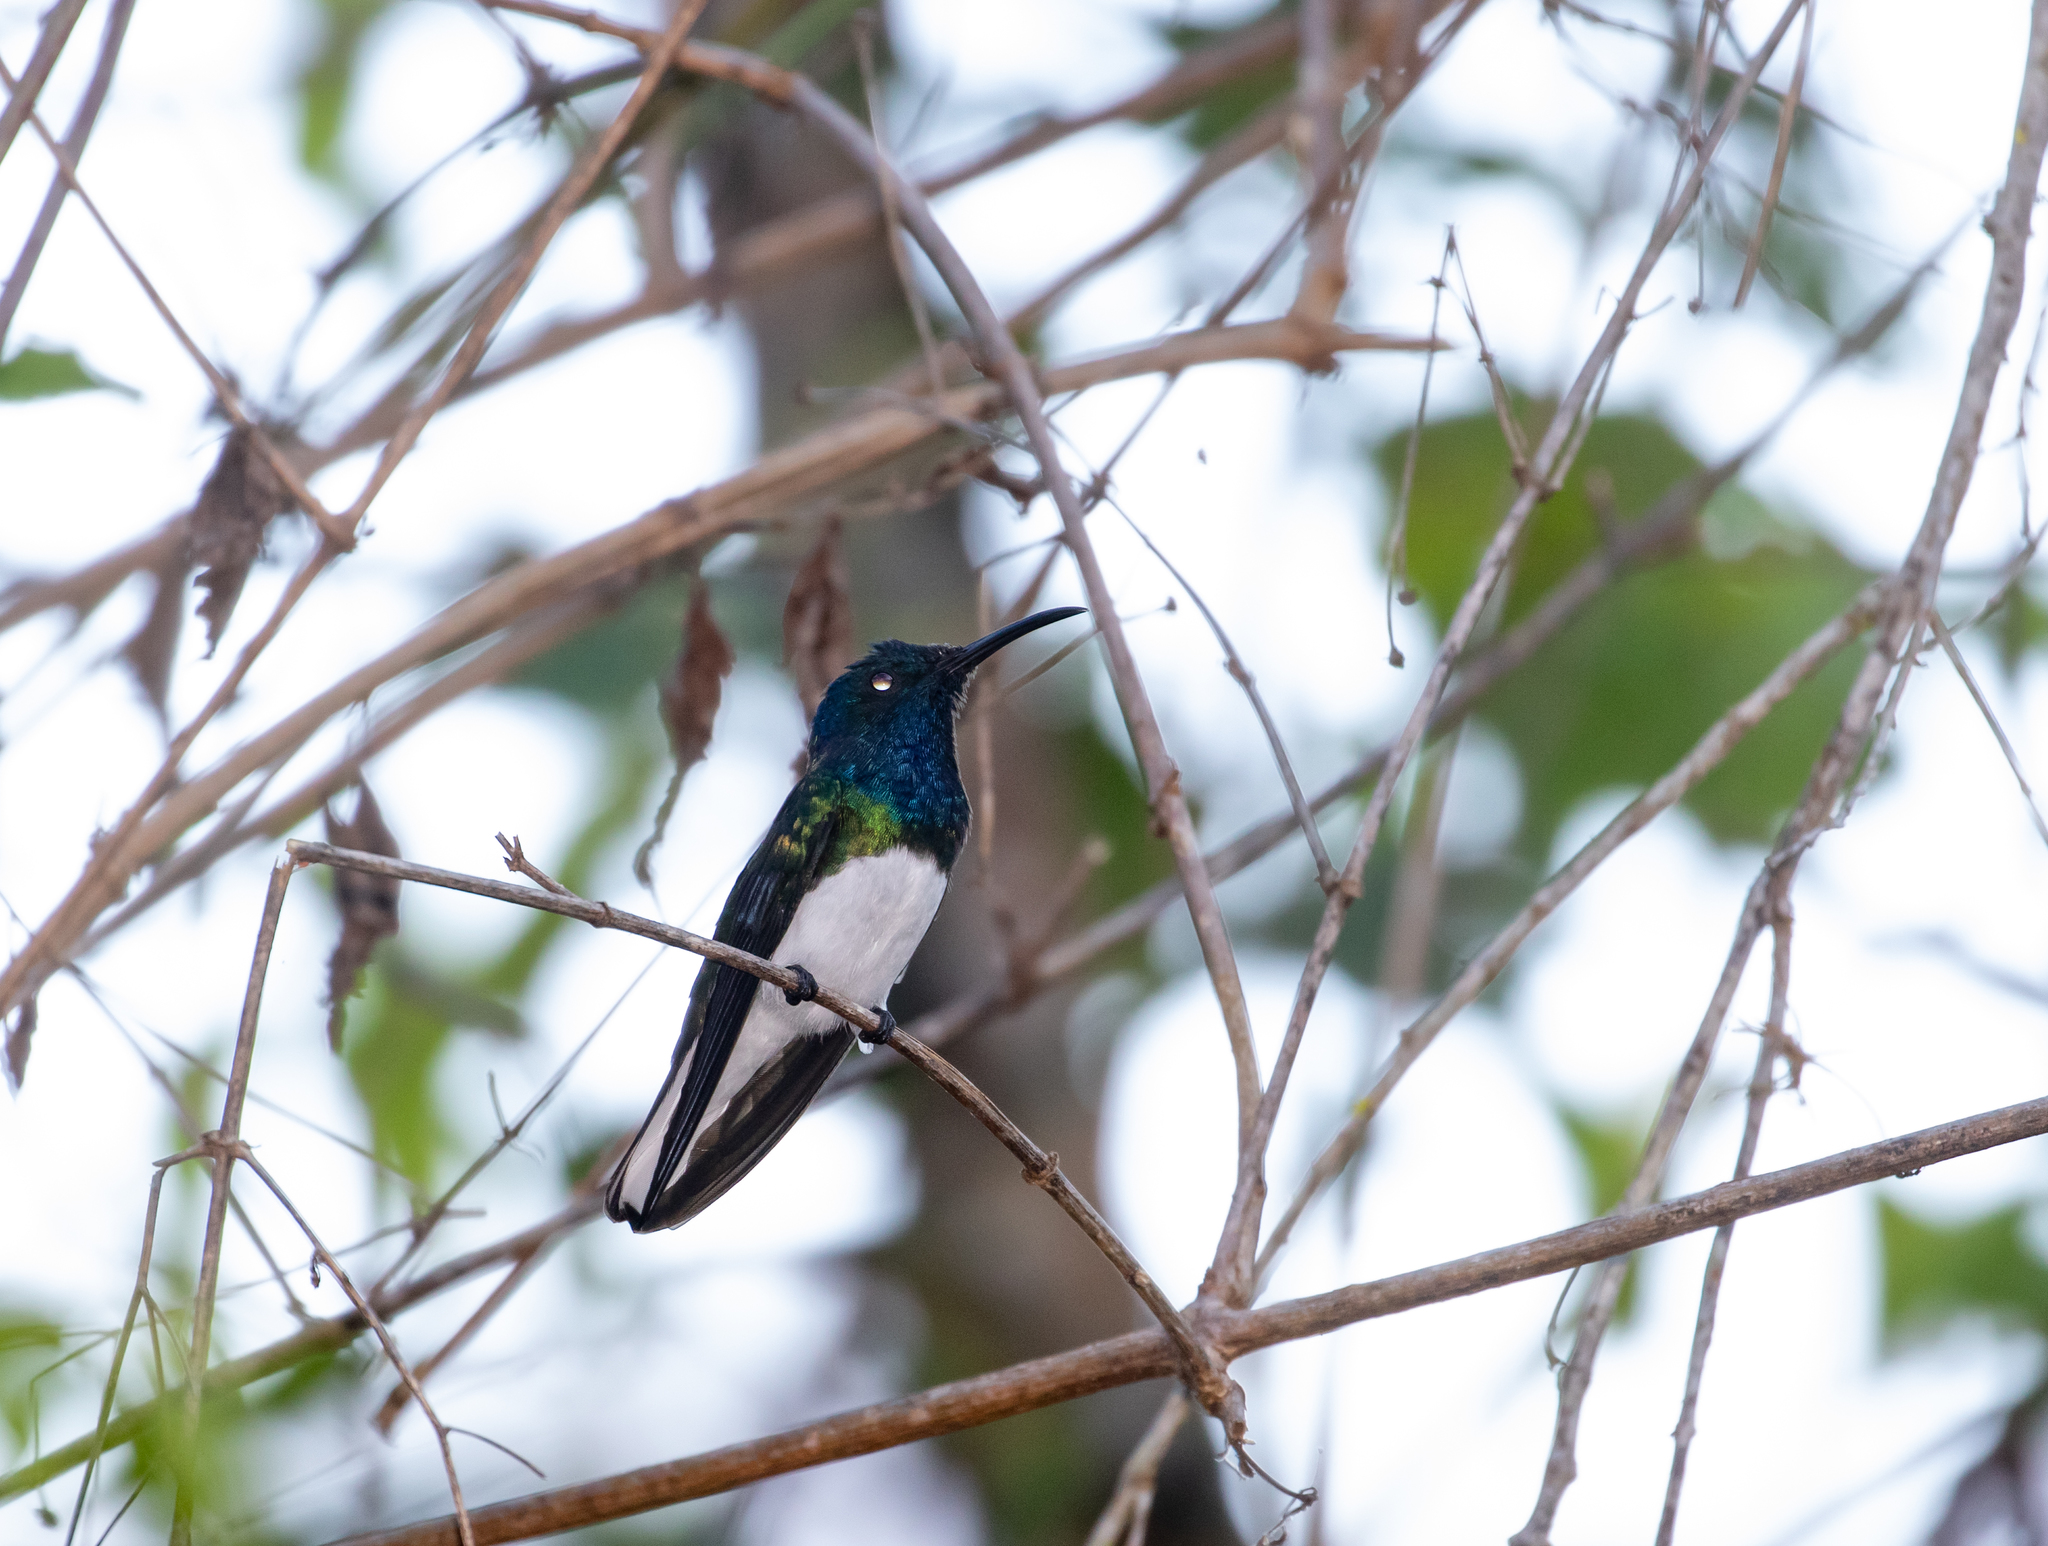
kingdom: Animalia
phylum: Chordata
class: Aves
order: Apodiformes
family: Trochilidae
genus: Florisuga
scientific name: Florisuga mellivora
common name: White-necked jacobin
